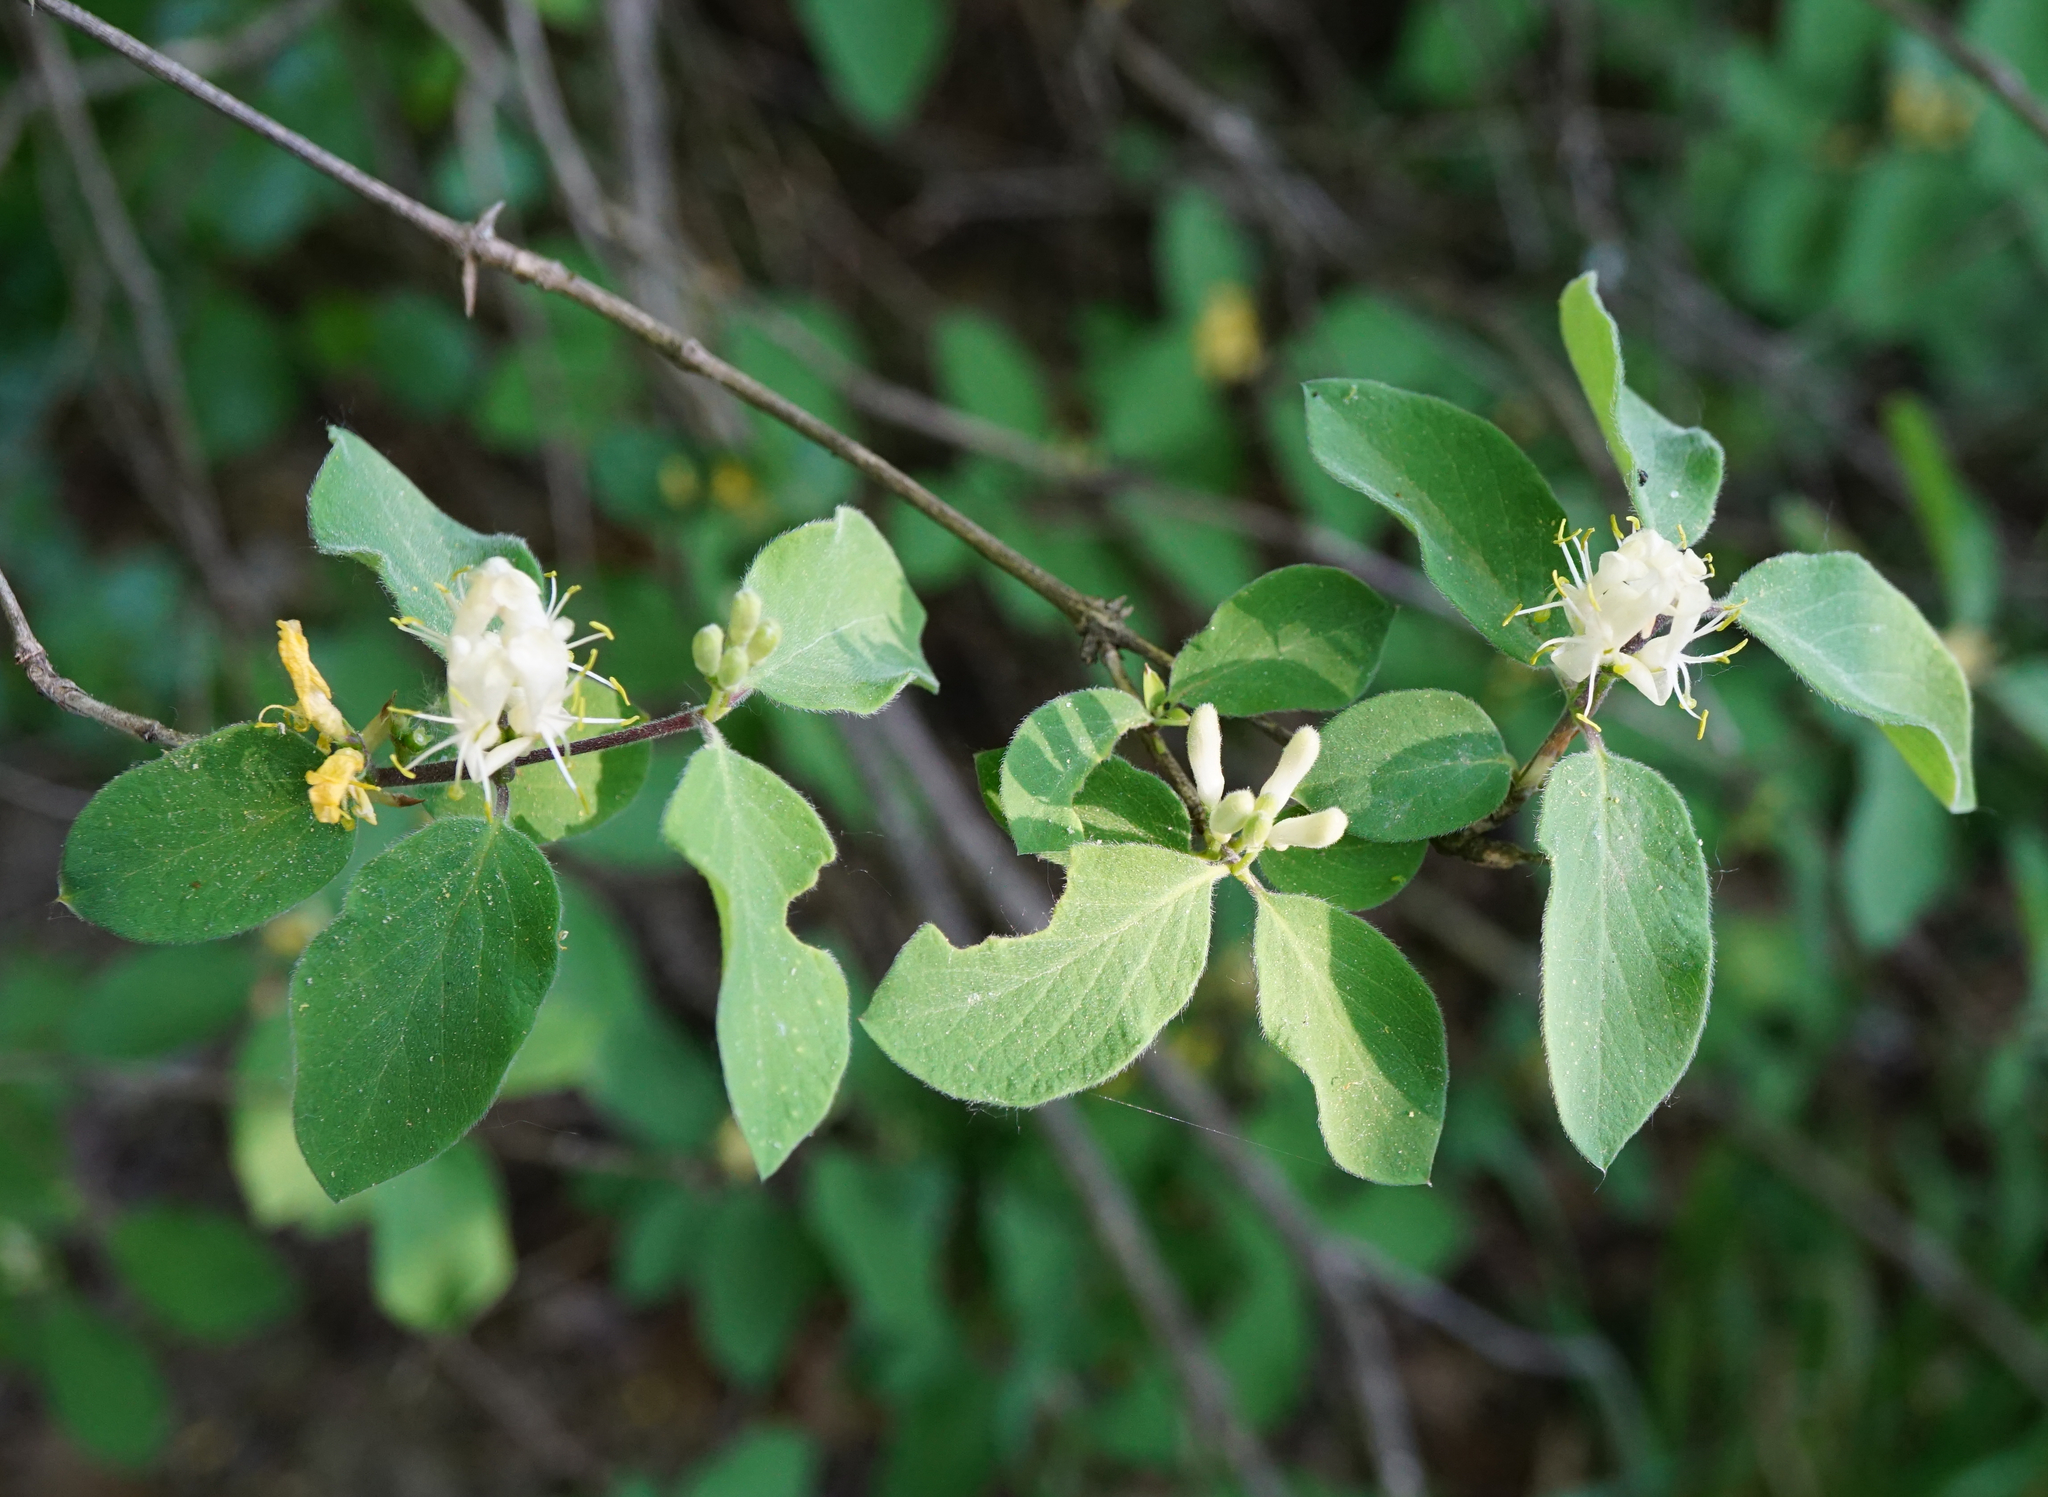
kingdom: Plantae
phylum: Tracheophyta
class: Magnoliopsida
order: Dipsacales
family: Caprifoliaceae
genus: Lonicera
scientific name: Lonicera xylosteum
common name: Fly honeysuckle
